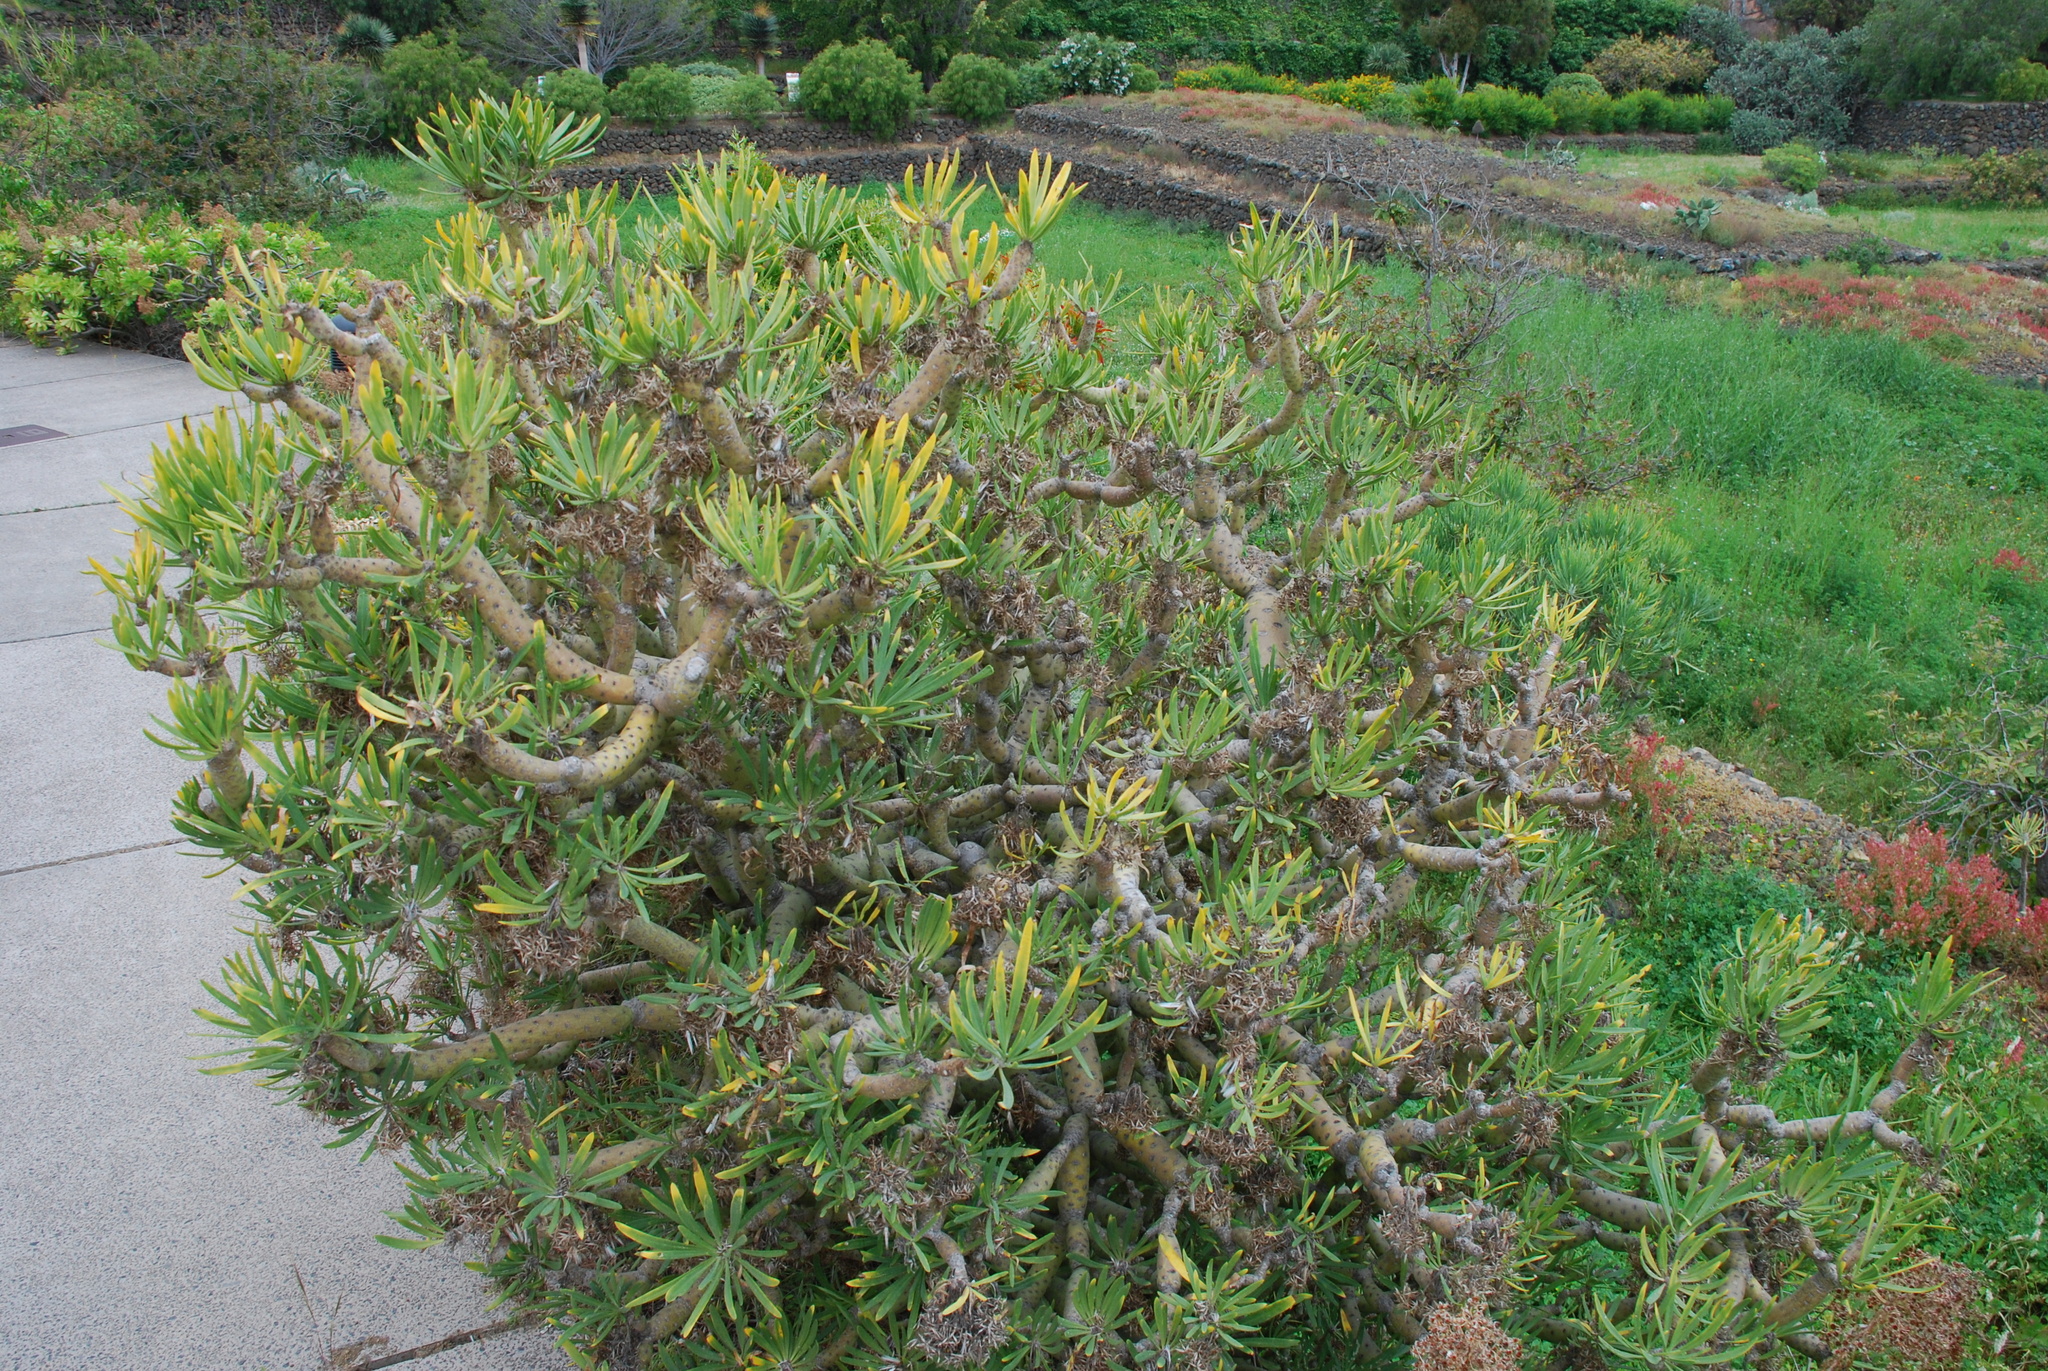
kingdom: Plantae
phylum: Tracheophyta
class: Magnoliopsida
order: Asterales
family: Asteraceae
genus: Kleinia
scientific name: Kleinia neriifolia
